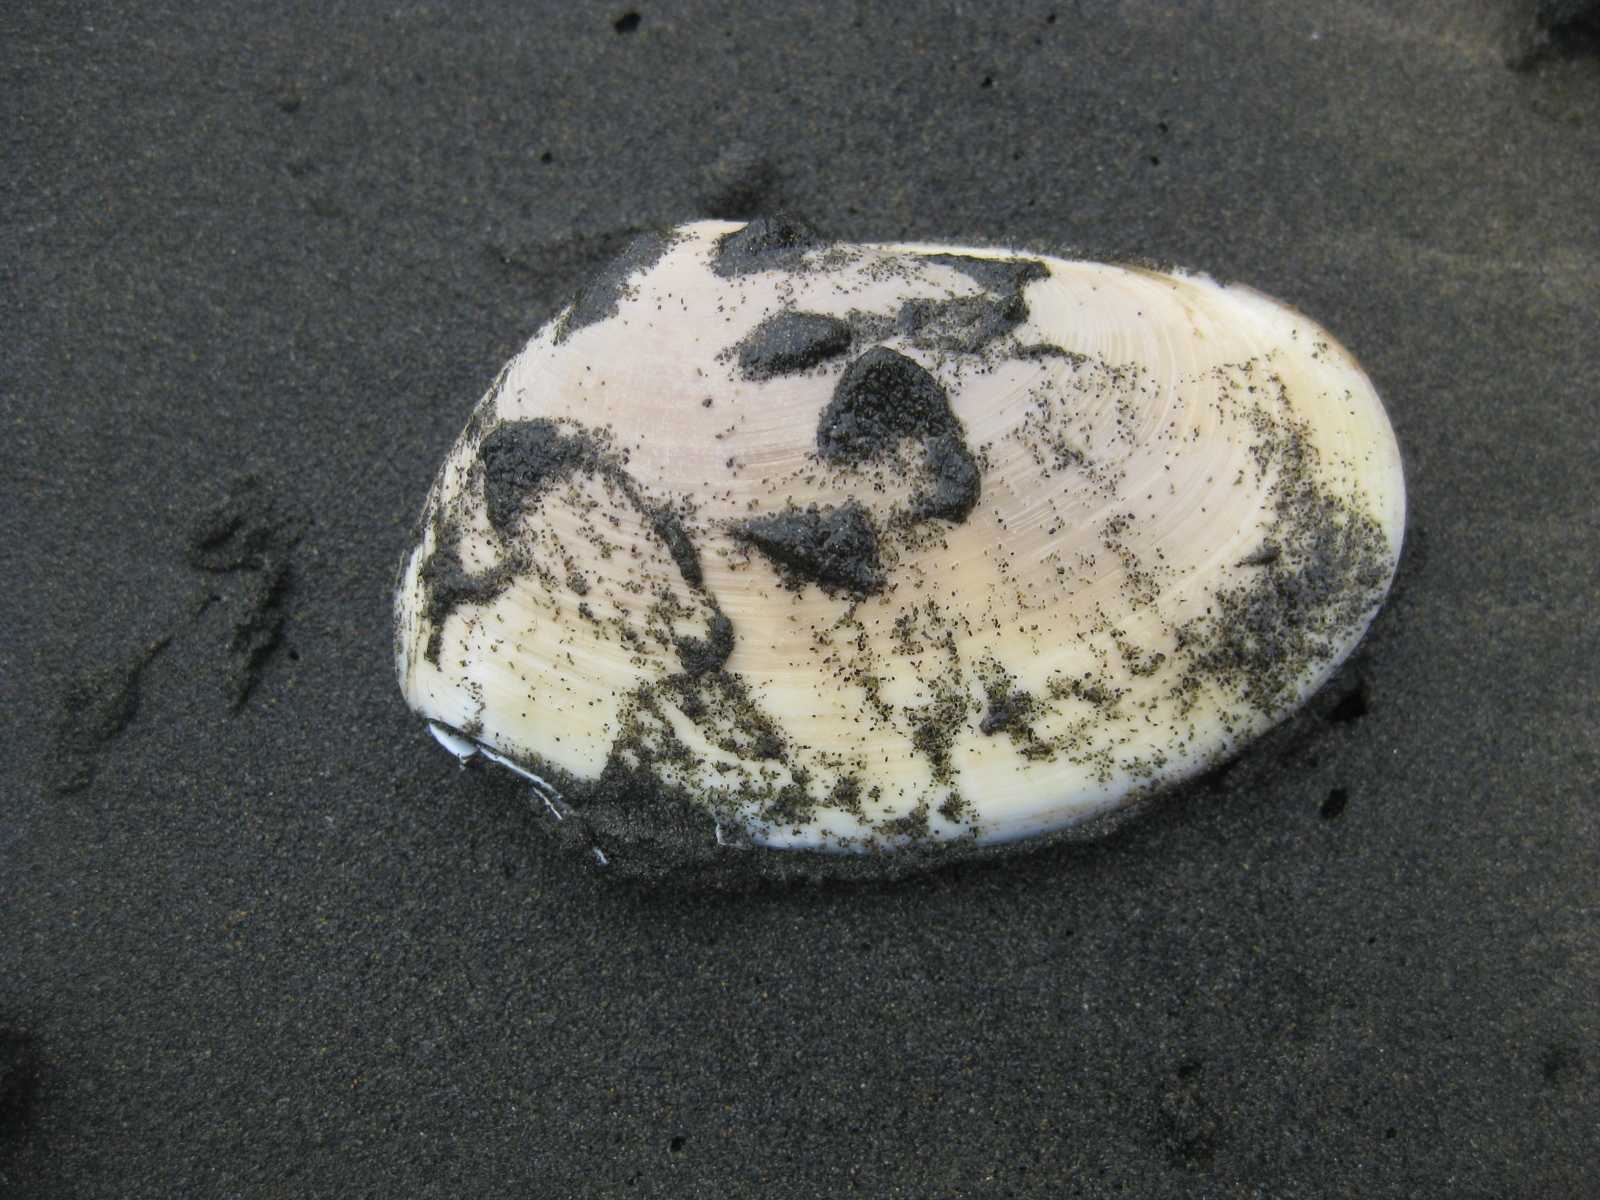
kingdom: Animalia
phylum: Mollusca
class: Bivalvia
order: Venerida
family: Mesodesmatidae
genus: Paphies
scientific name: Paphies ventricosa
